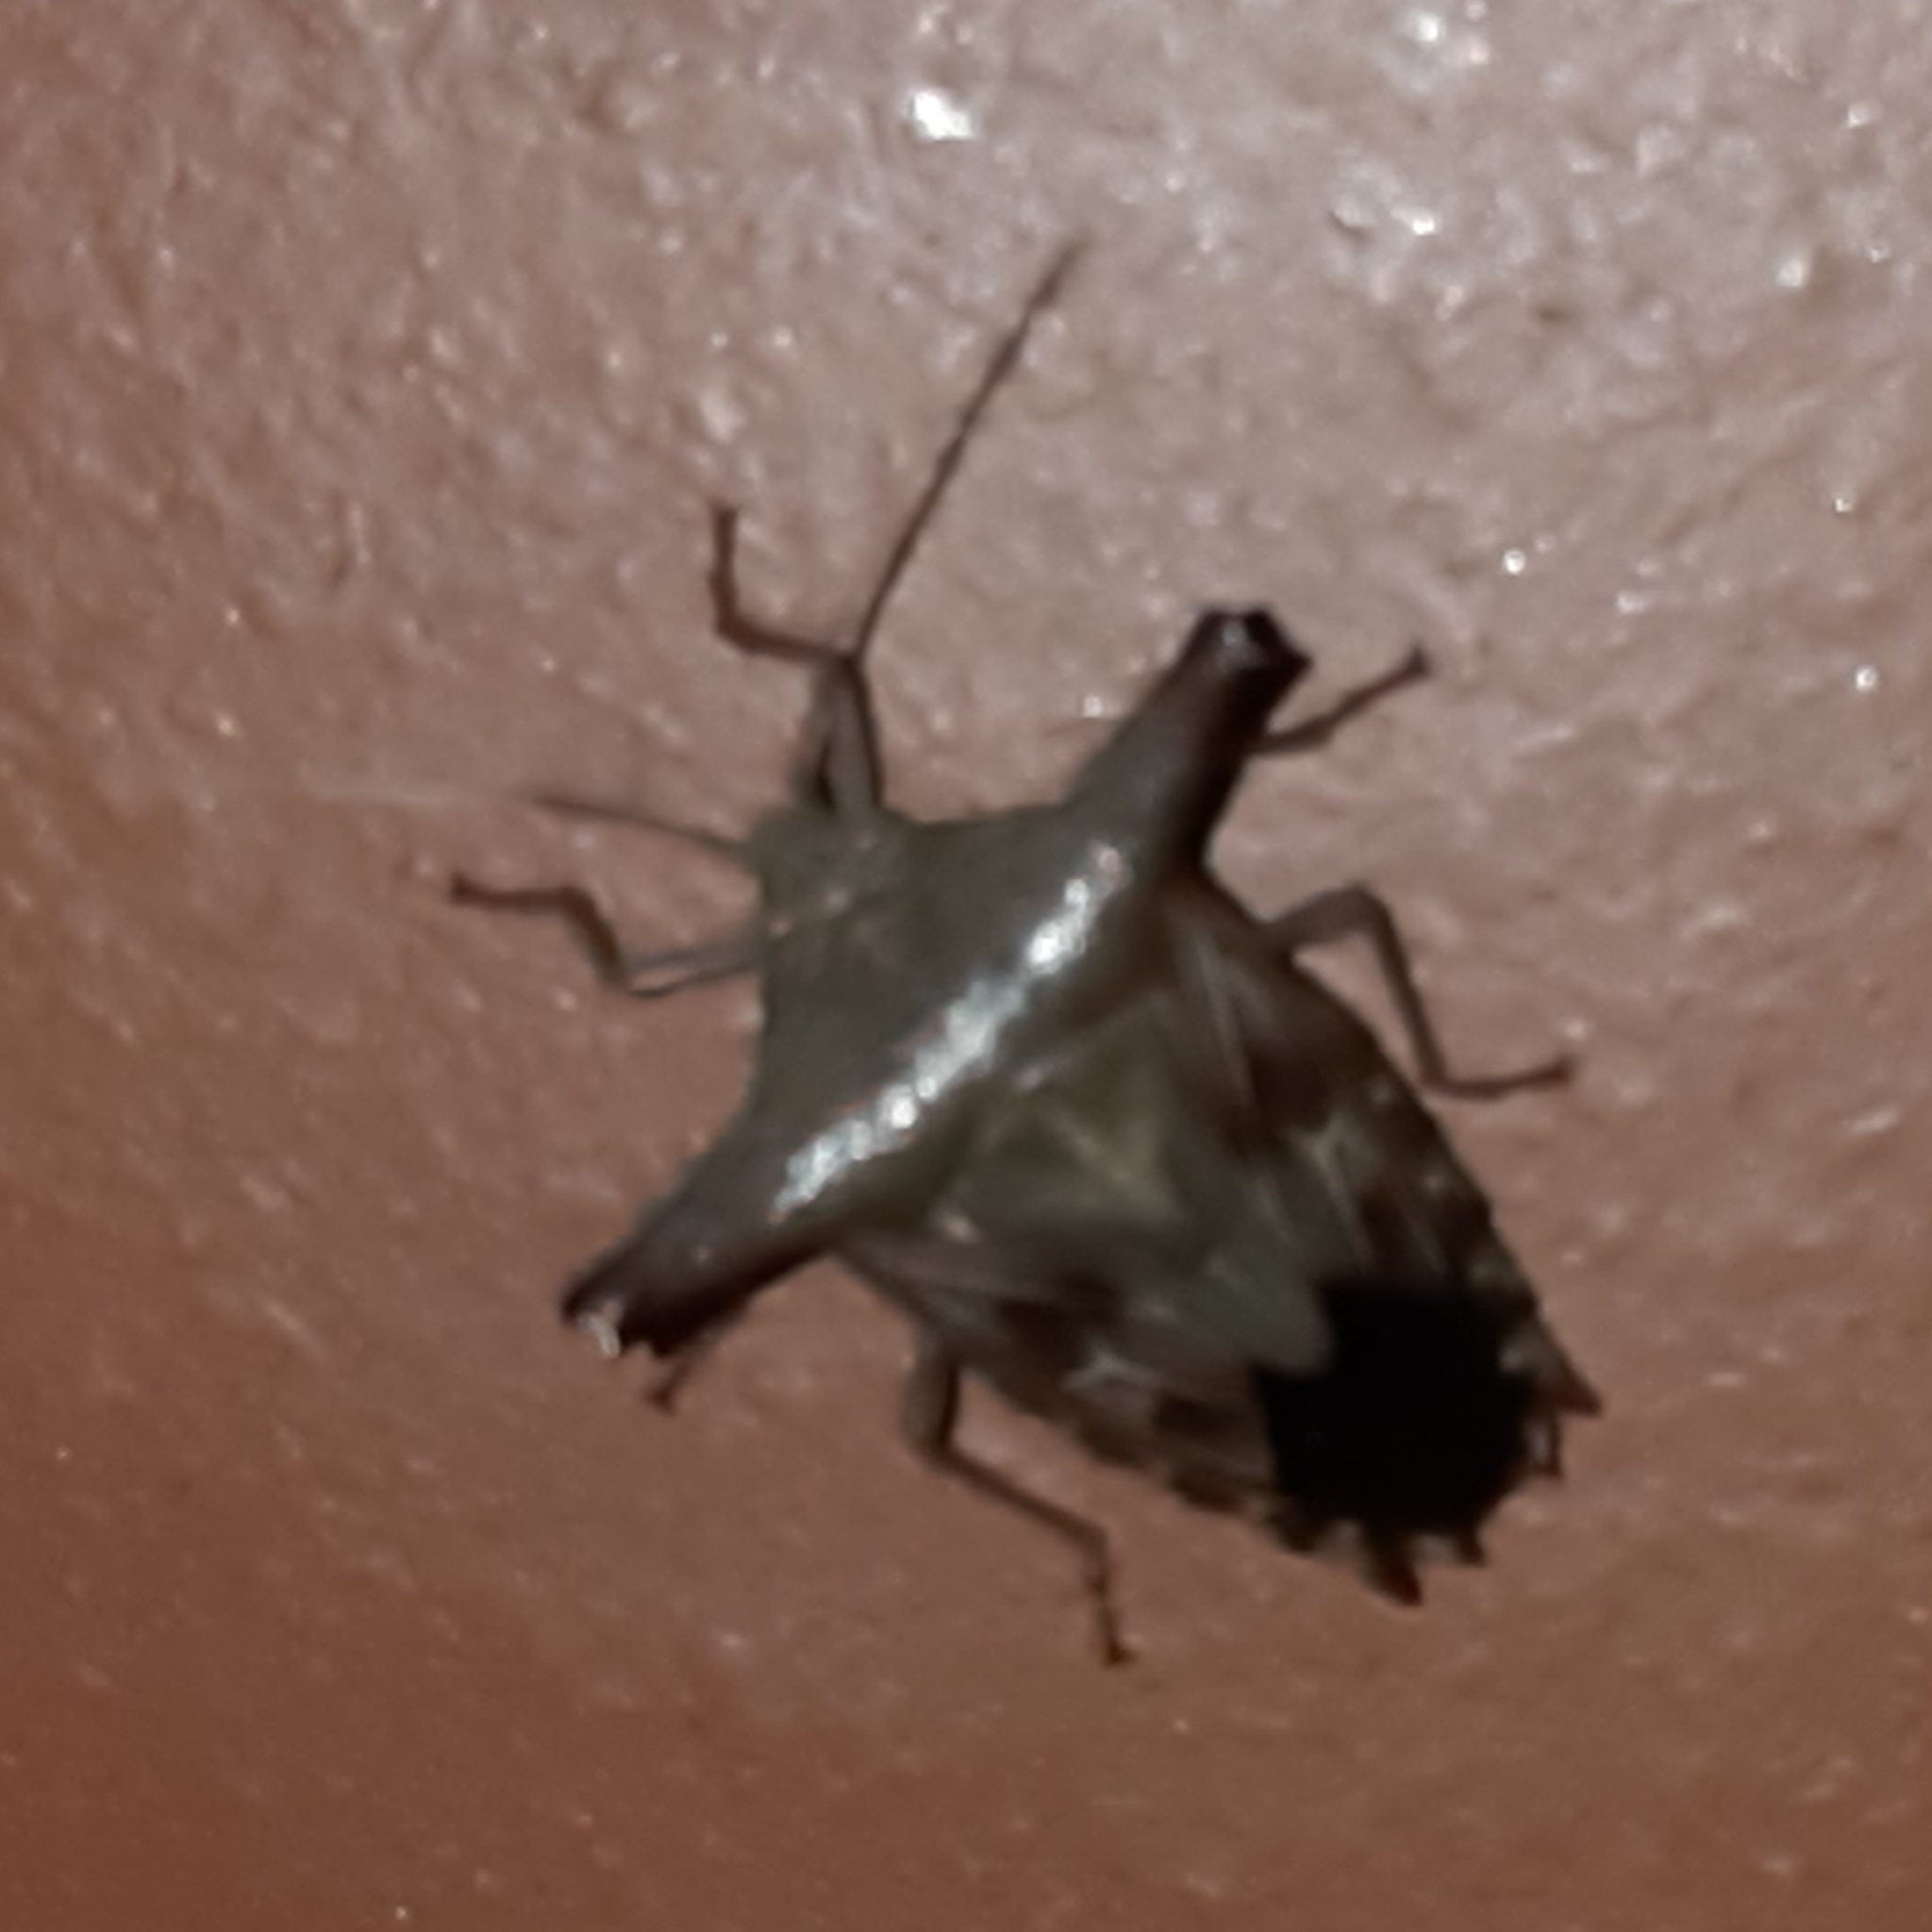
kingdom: Animalia
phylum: Arthropoda
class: Insecta
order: Hemiptera
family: Pentatomidae
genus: Edessa
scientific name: Edessa laticornis
